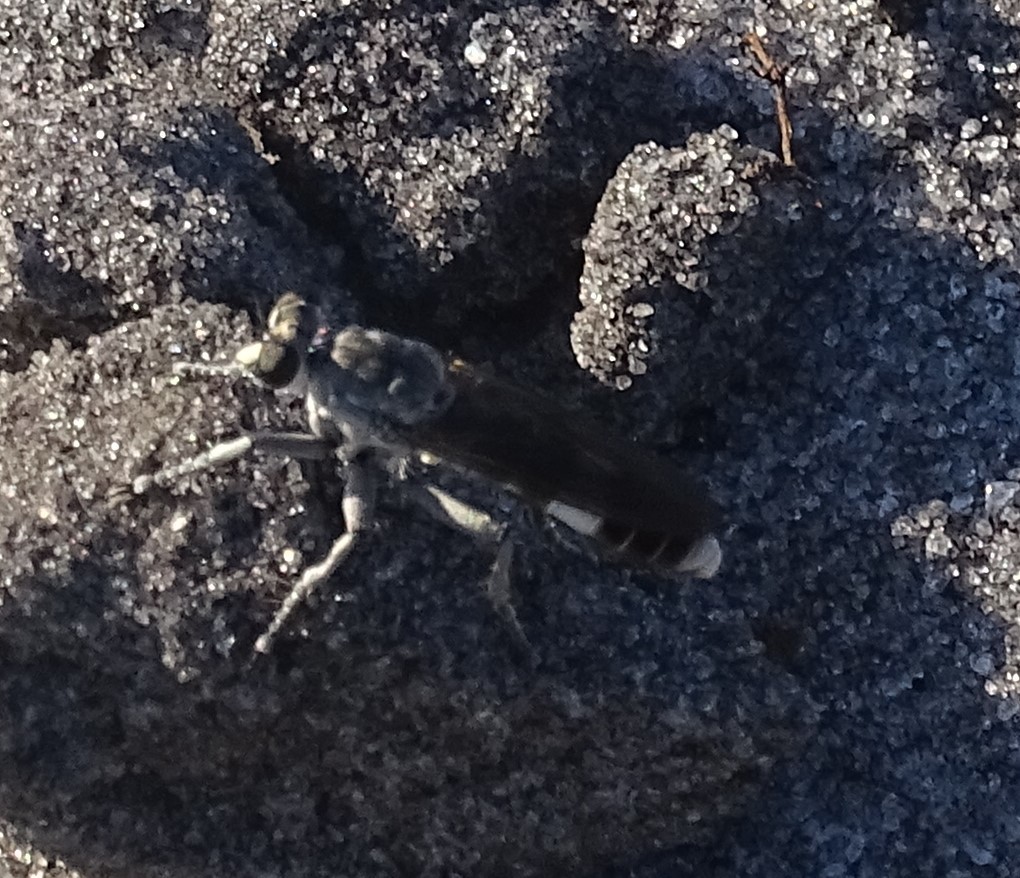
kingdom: Animalia
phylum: Arthropoda
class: Insecta
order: Diptera
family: Asilidae
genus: Stichopogon
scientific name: Stichopogon trifasciatus
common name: Three-banded robber fly
